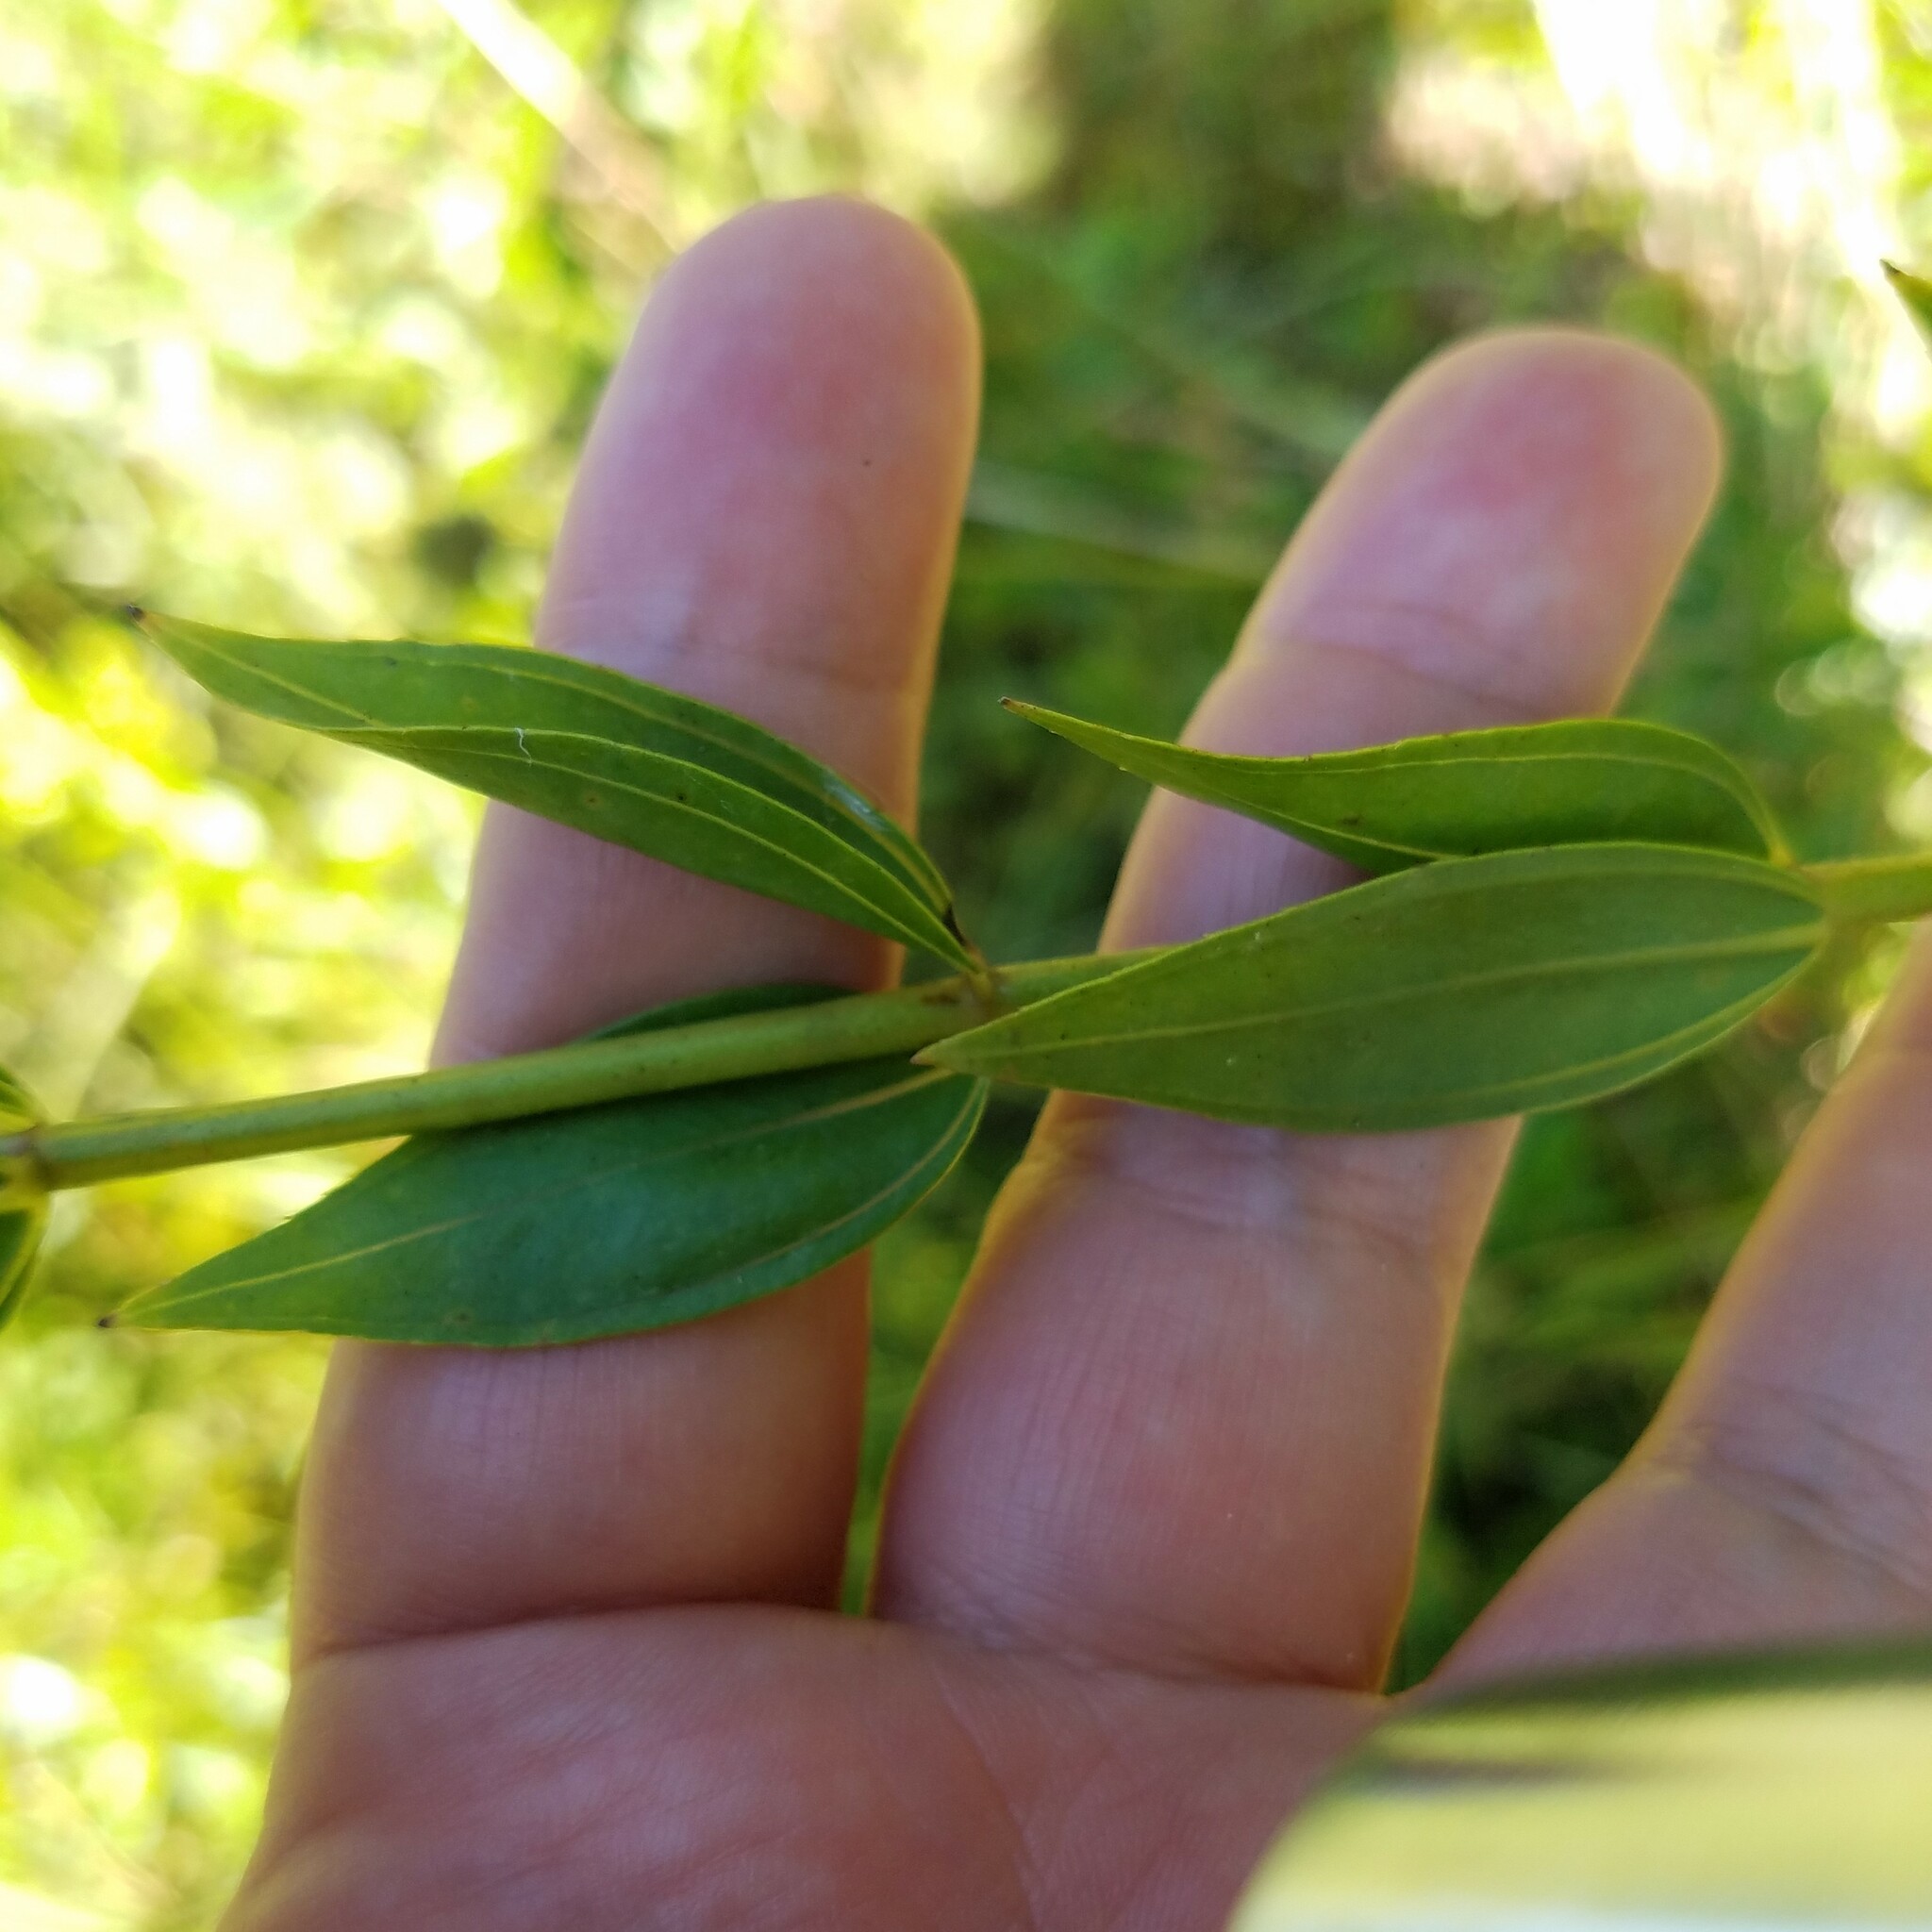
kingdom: Plantae
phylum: Tracheophyta
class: Magnoliopsida
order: Myrtales
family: Melastomataceae
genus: Rhexia
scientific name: Rhexia alifanus
